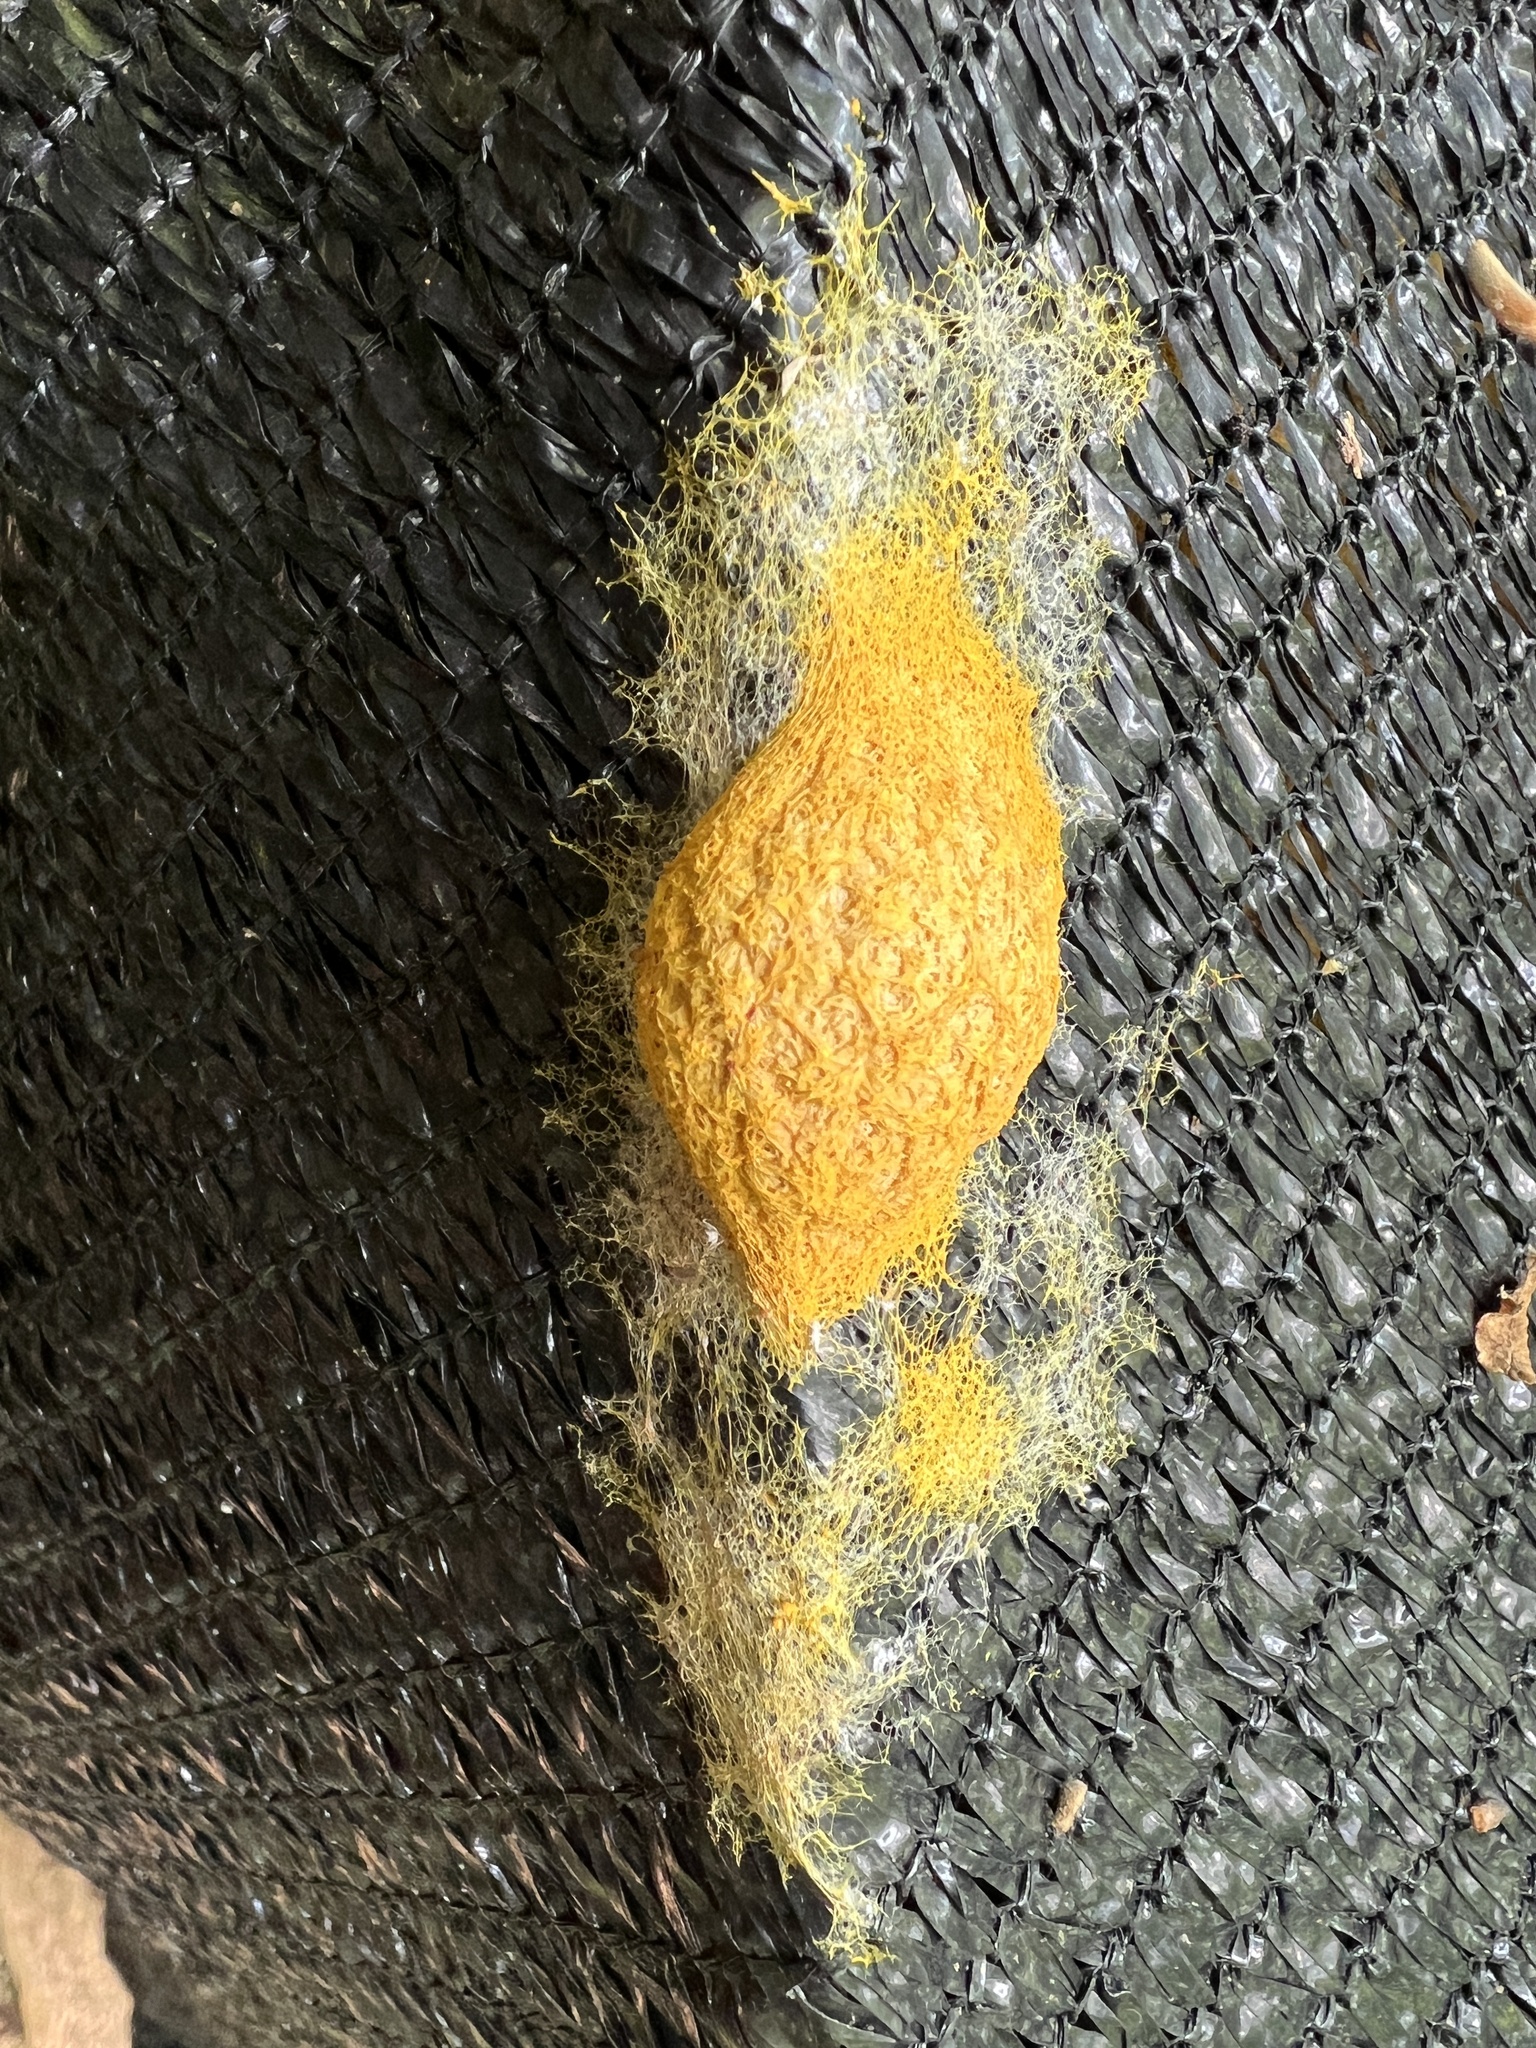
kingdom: Protozoa
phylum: Mycetozoa
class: Myxomycetes
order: Physarales
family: Physaraceae
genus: Fuligo
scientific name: Fuligo septica
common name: Dog vomit slime mold
